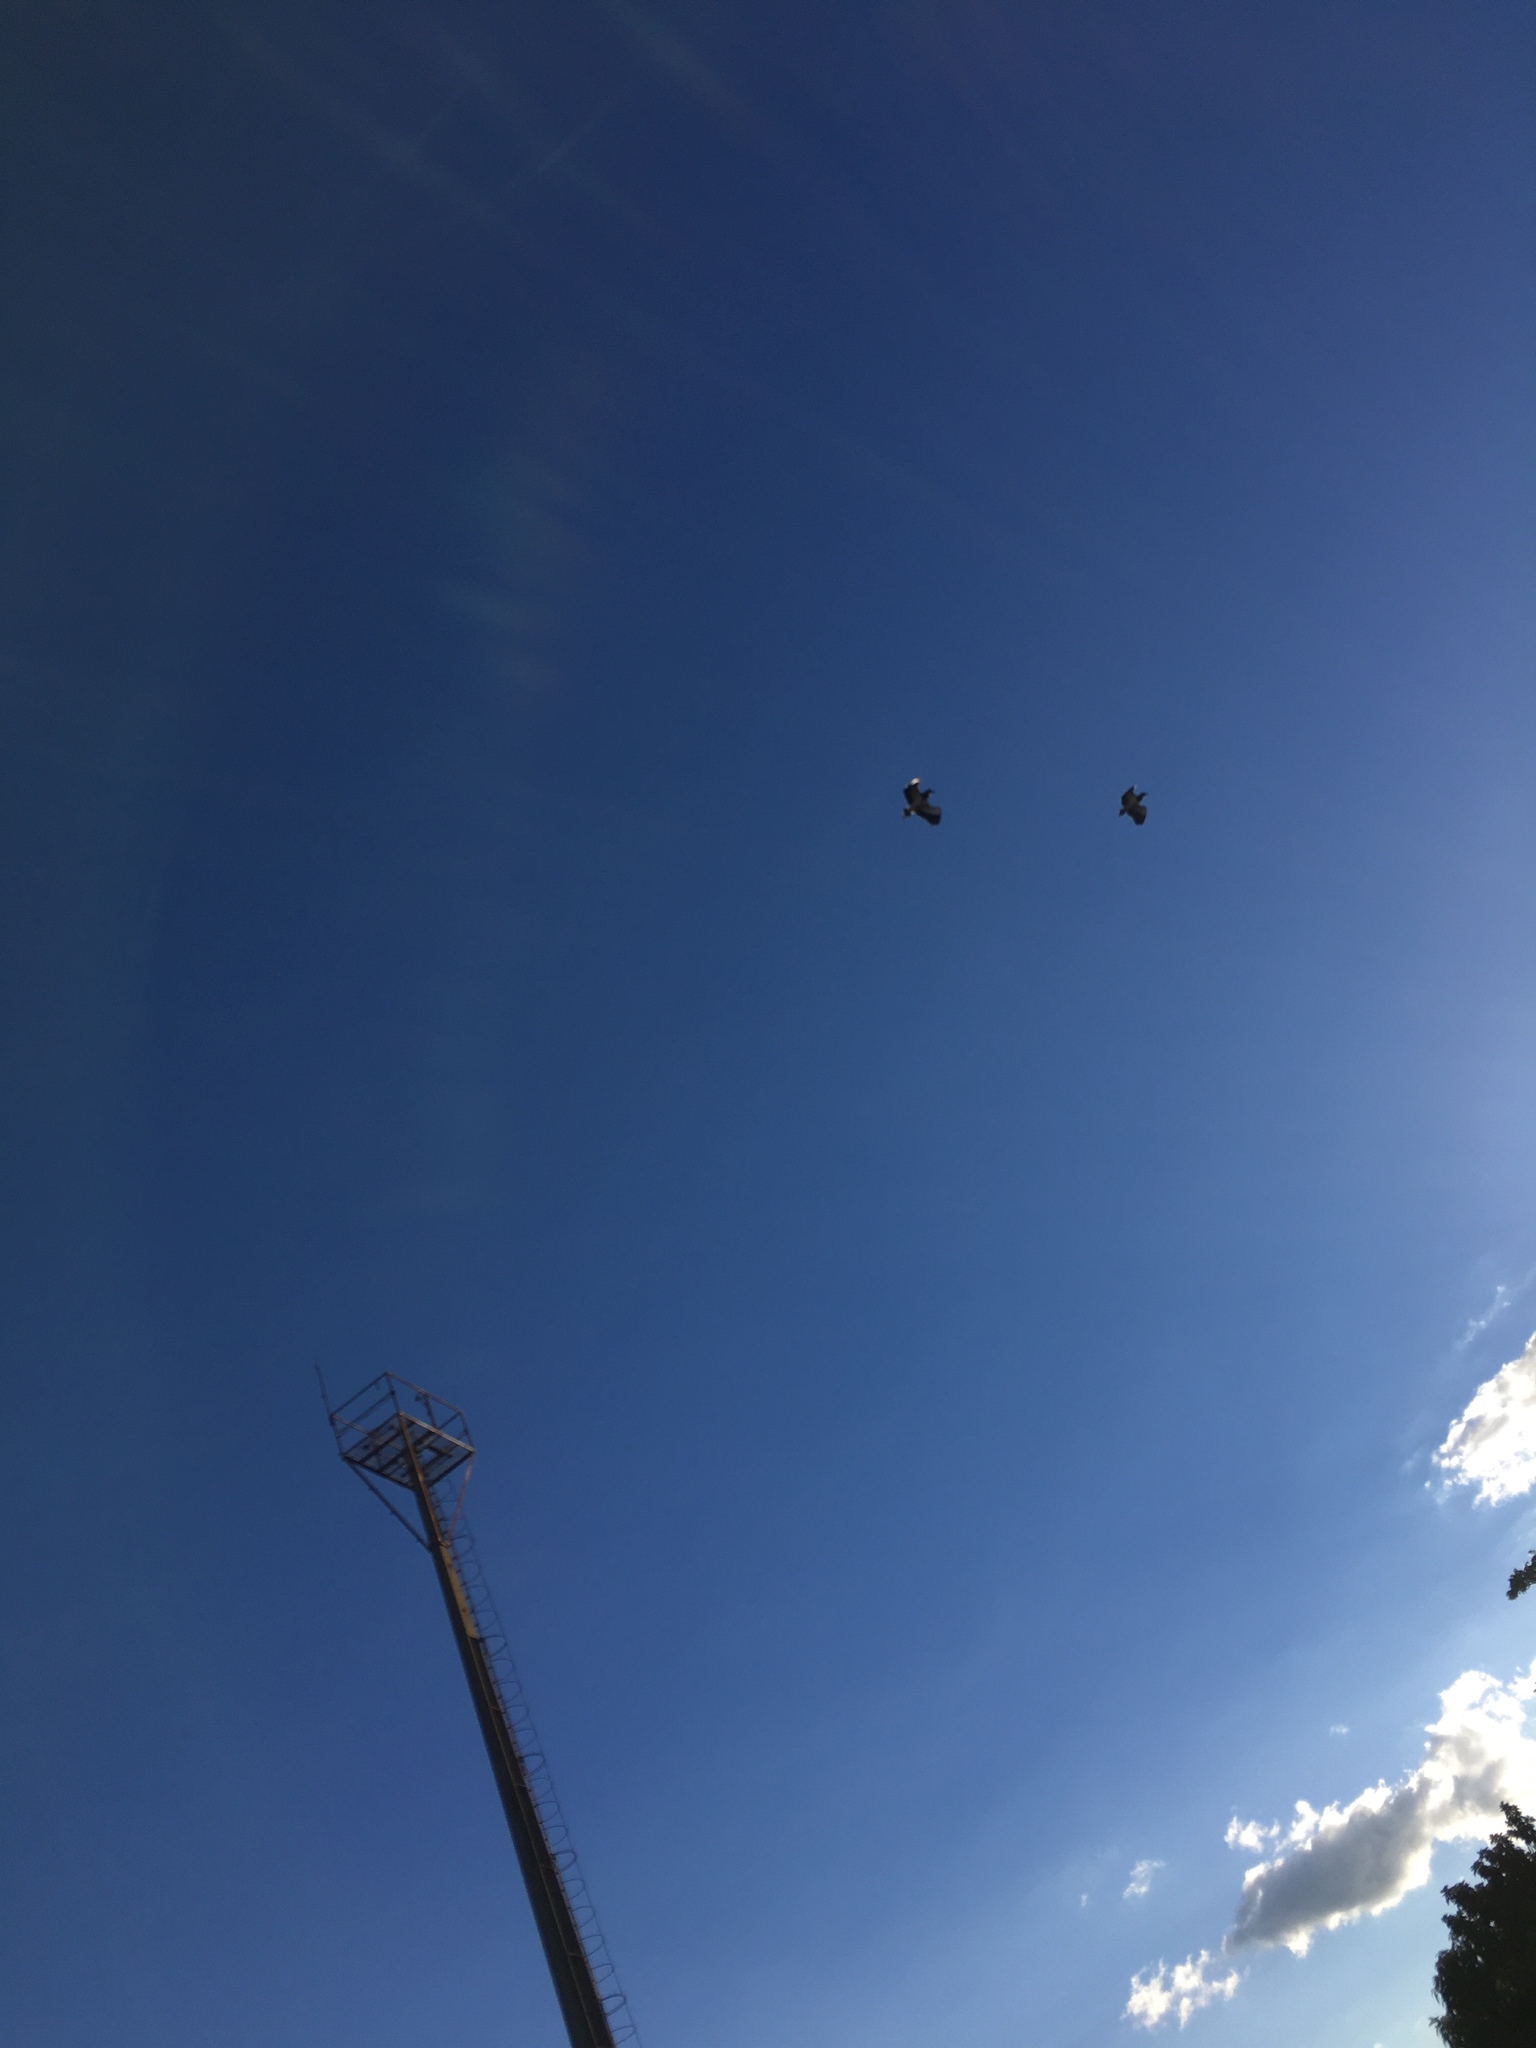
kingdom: Animalia
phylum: Chordata
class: Aves
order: Charadriiformes
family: Charadriidae
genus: Vanellus
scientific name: Vanellus chilensis
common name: Southern lapwing
